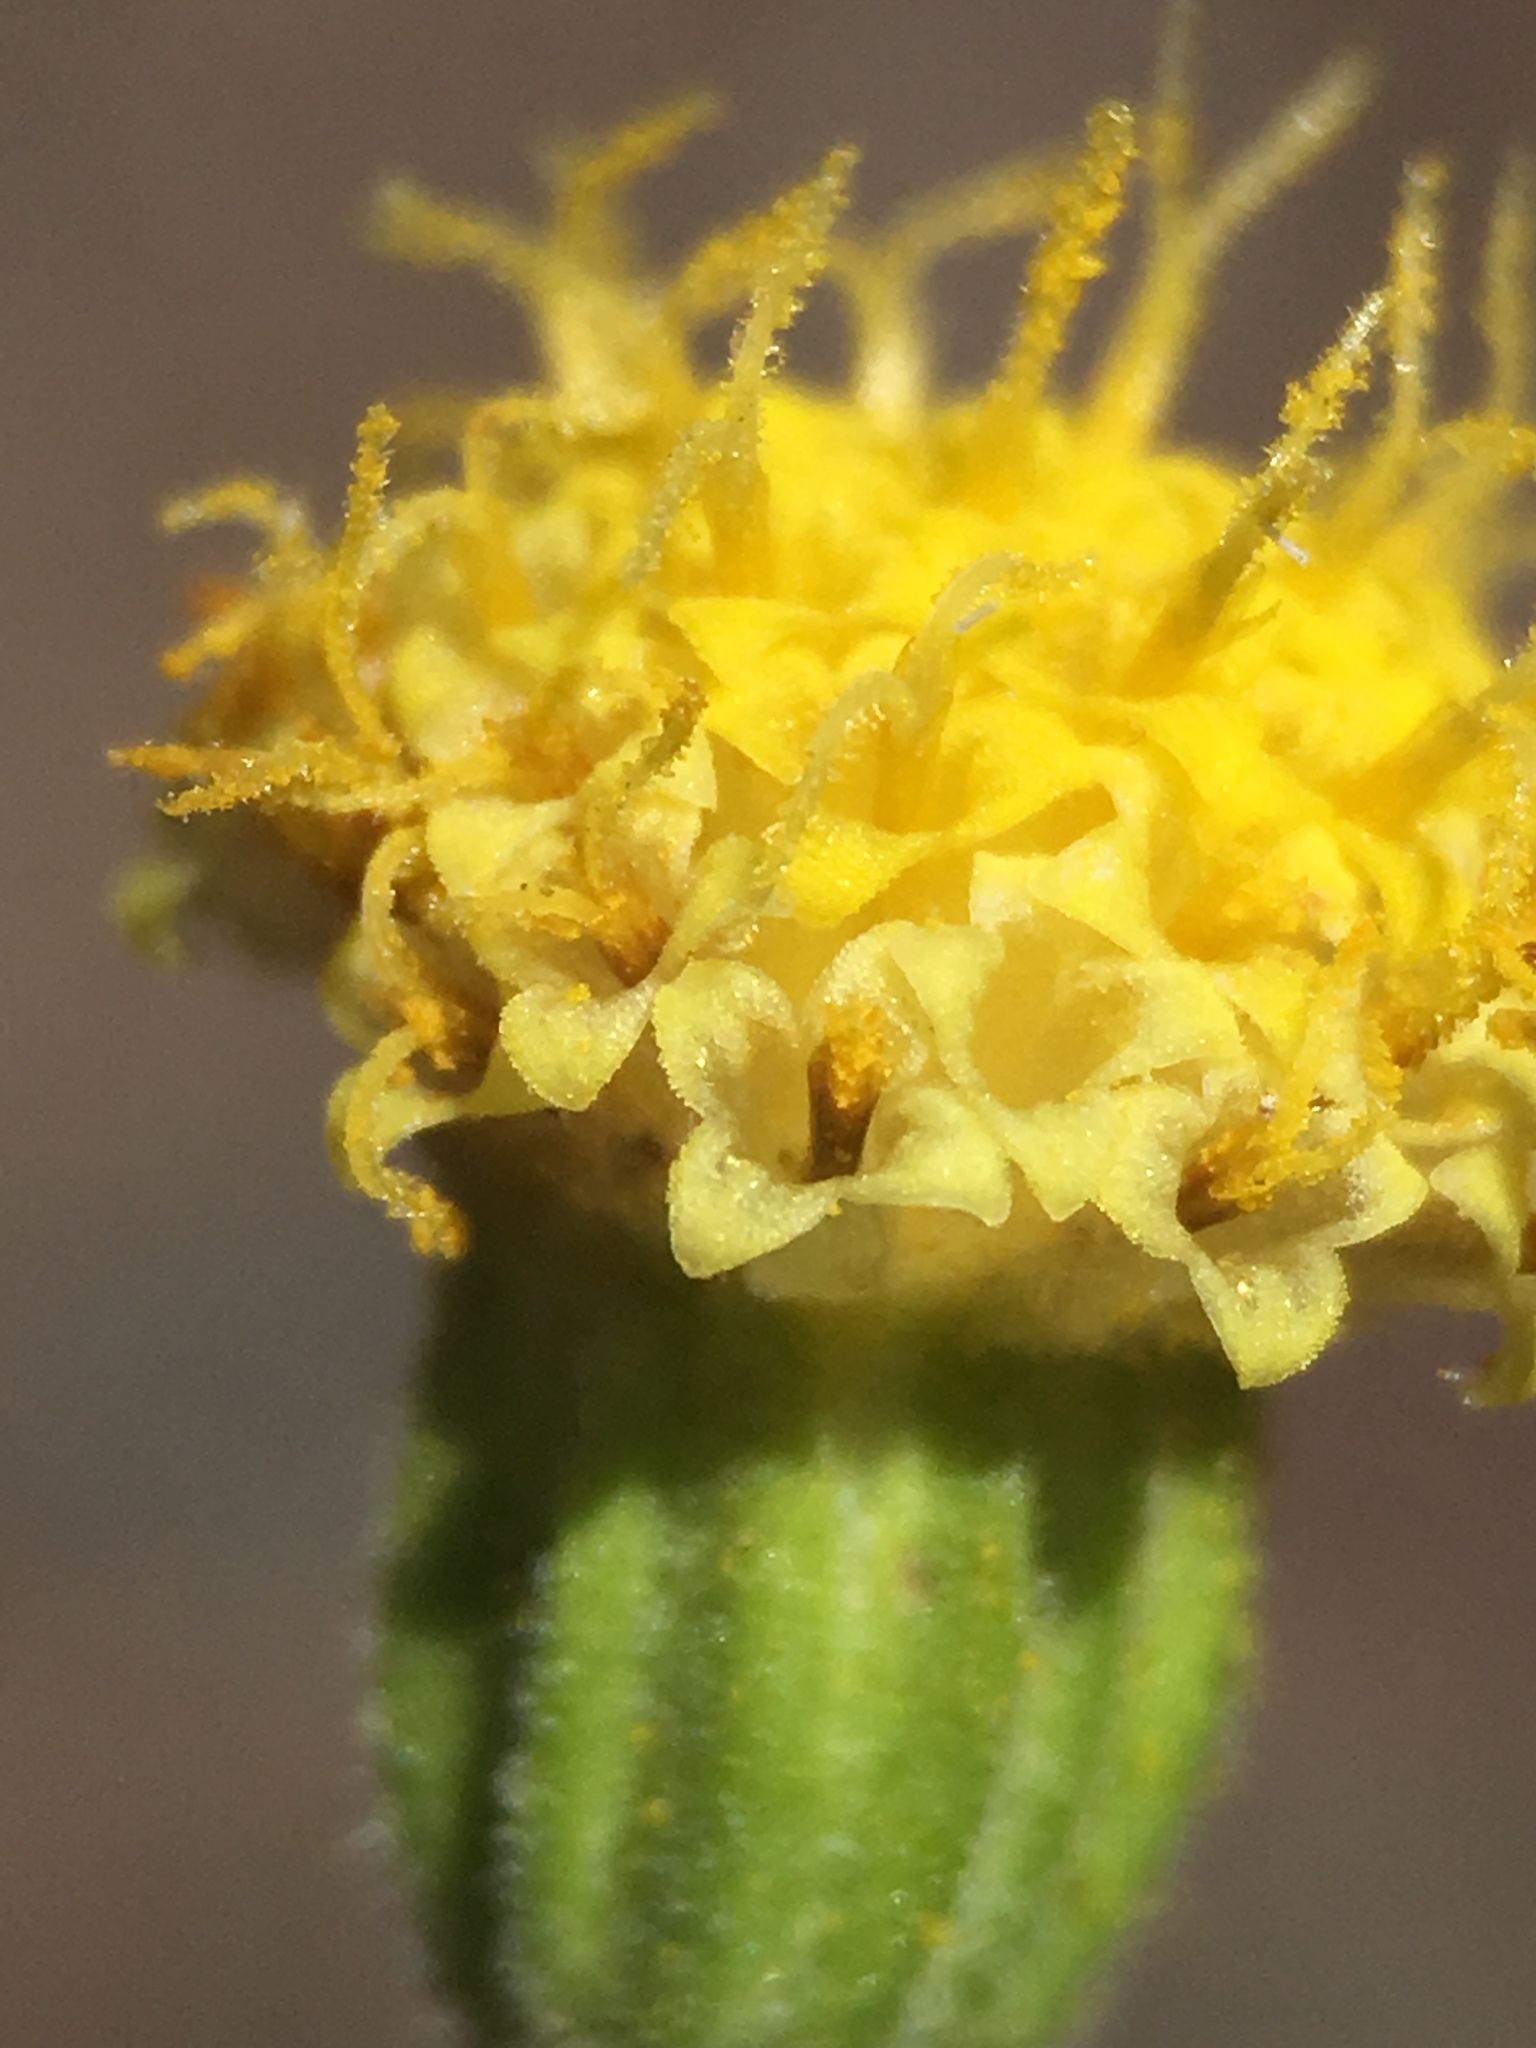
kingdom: Plantae
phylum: Tracheophyta
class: Magnoliopsida
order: Asterales
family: Asteraceae
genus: Laphamia
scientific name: Laphamia megalocephala
